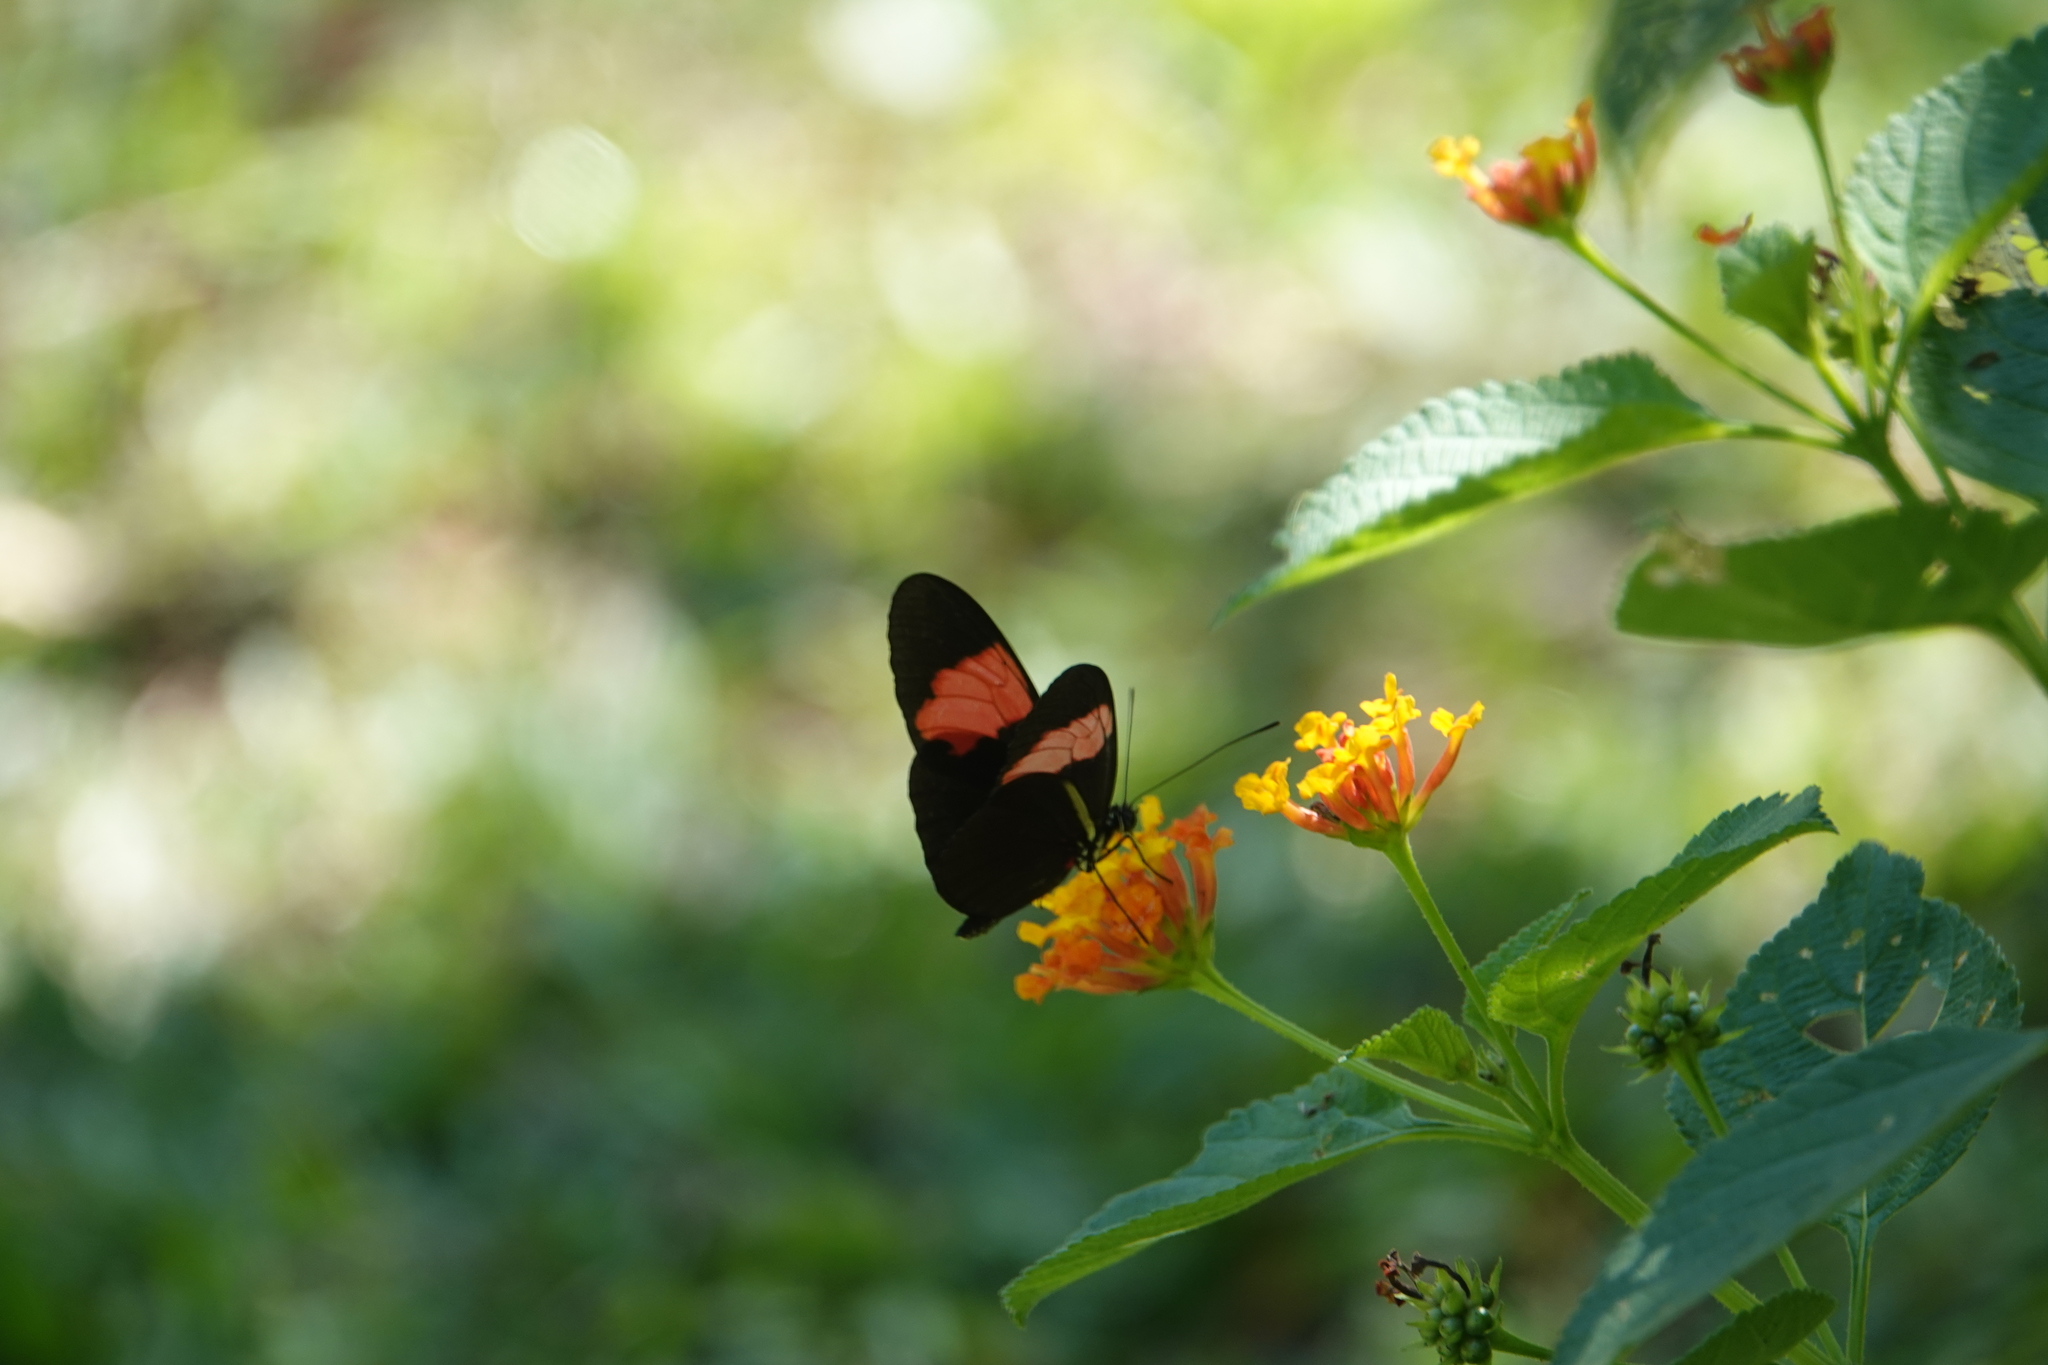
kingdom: Animalia
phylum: Arthropoda
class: Insecta
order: Lepidoptera
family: Nymphalidae
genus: Heliconius
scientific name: Heliconius erato
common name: Common patch longwing
